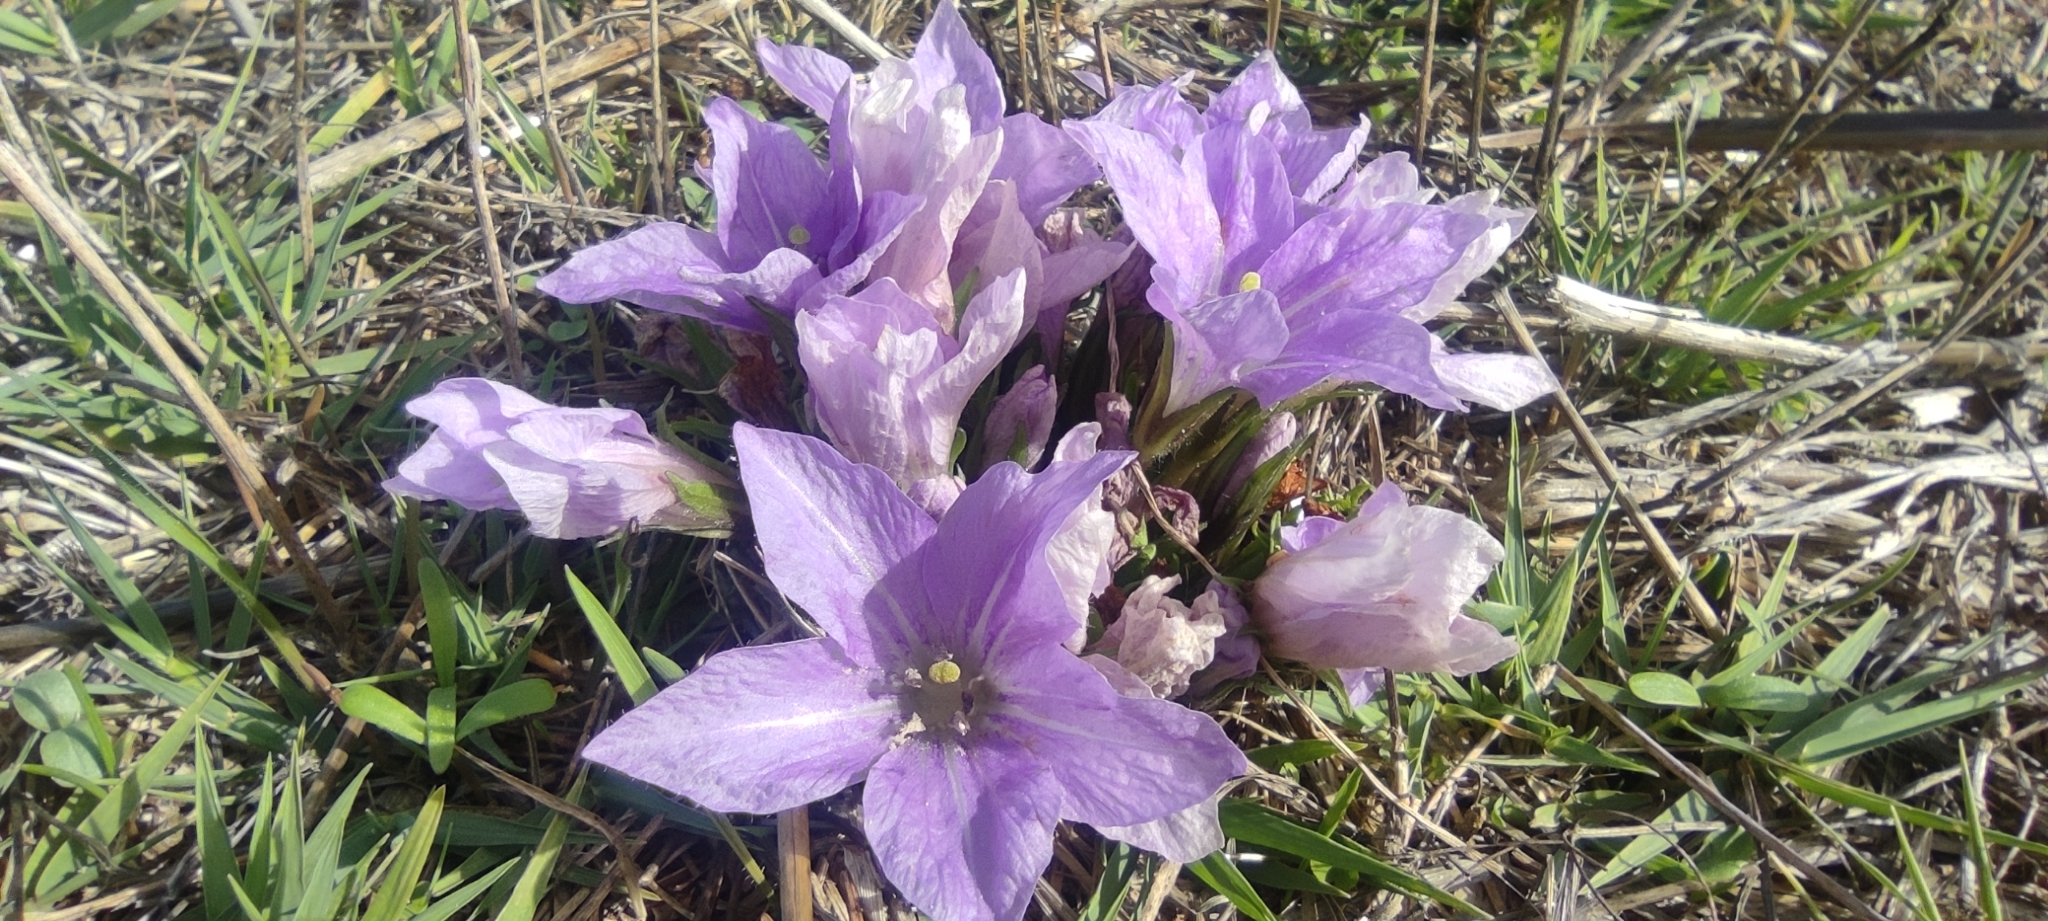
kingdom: Plantae
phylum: Tracheophyta
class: Magnoliopsida
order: Solanales
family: Solanaceae
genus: Mandragora
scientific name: Mandragora officinarum
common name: Mandrake
